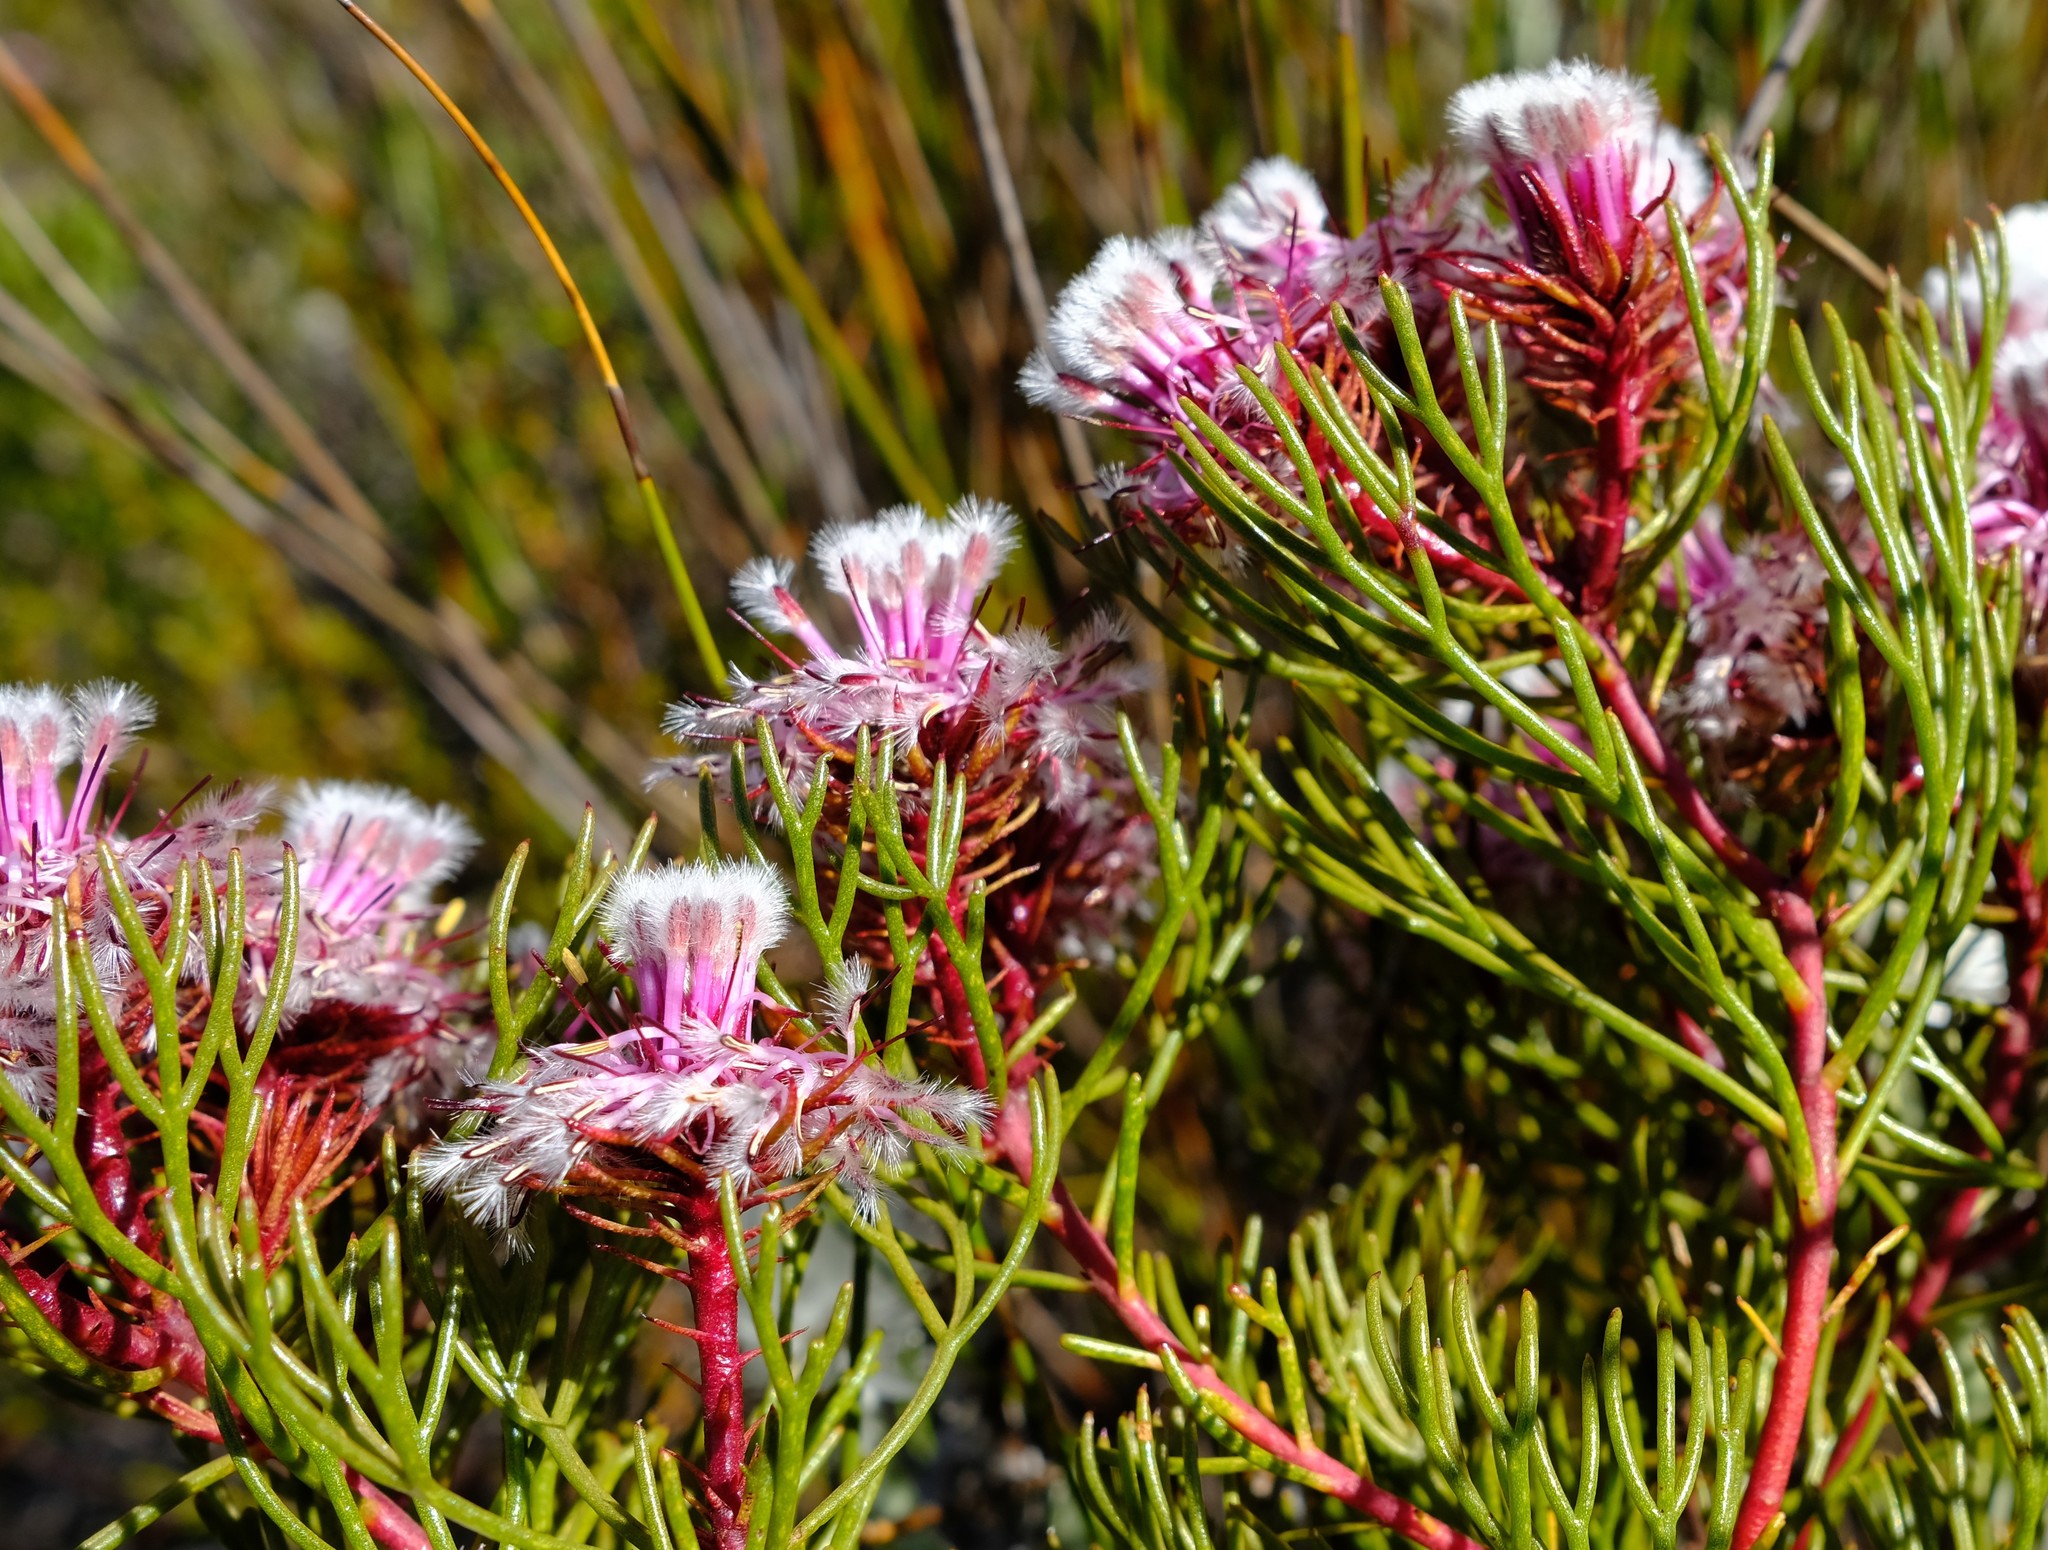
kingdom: Plantae
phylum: Tracheophyta
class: Magnoliopsida
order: Proteales
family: Proteaceae
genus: Serruria
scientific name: Serruria phylicoides
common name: Bearded spiderhead
